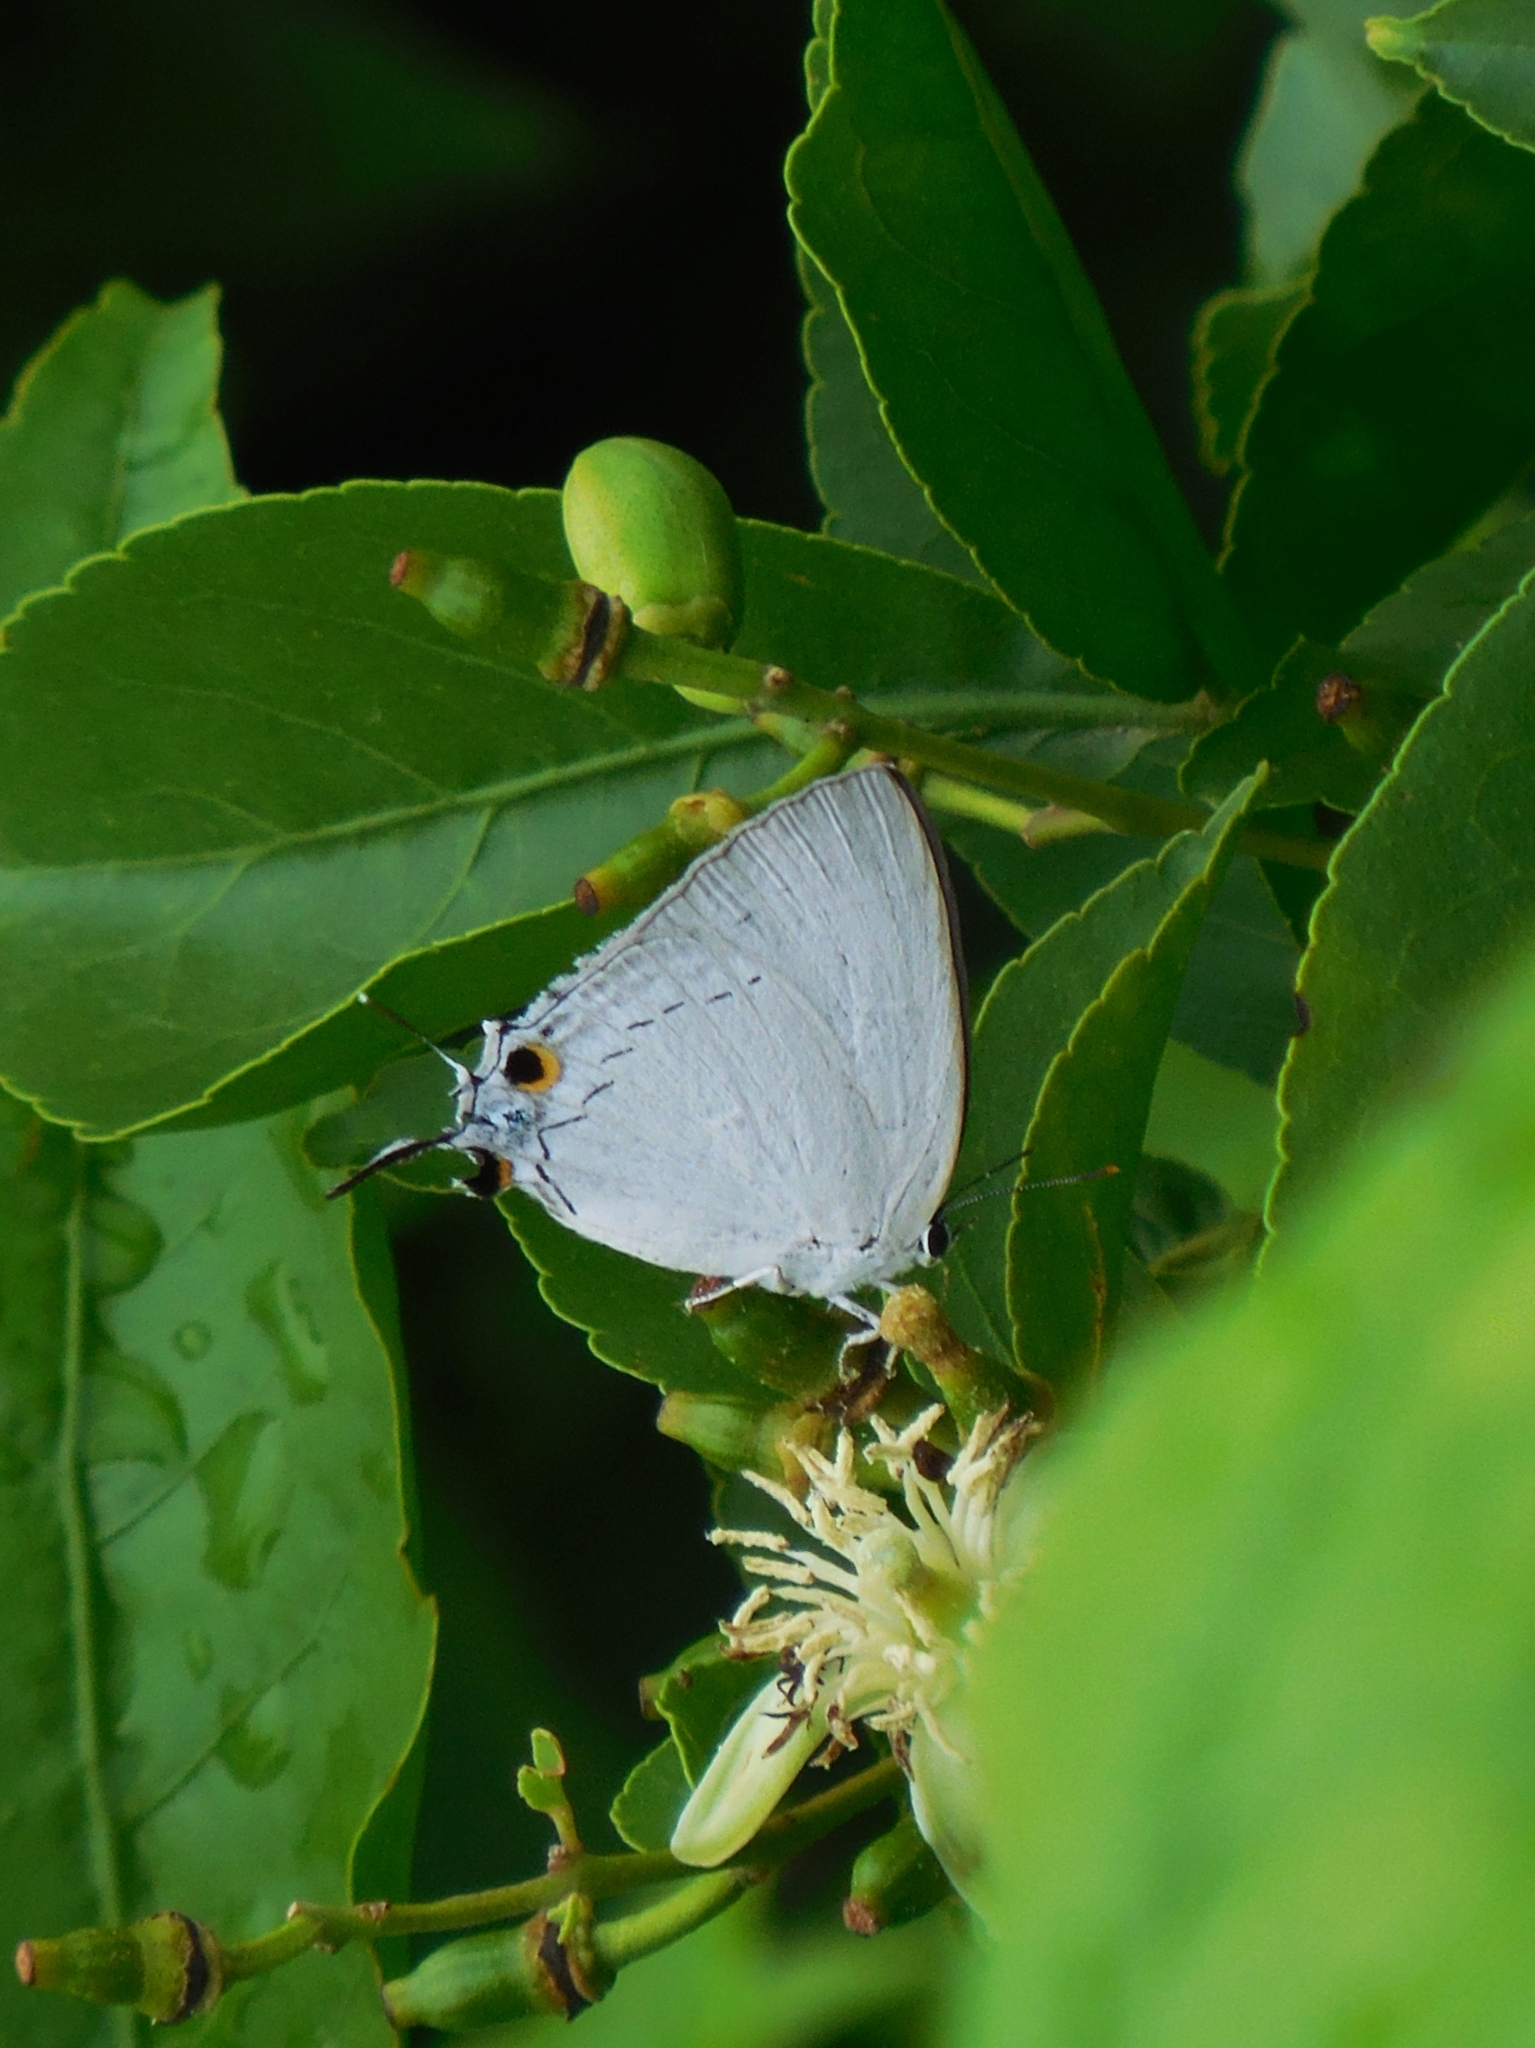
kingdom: Animalia
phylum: Arthropoda
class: Insecta
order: Lepidoptera
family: Lycaenidae
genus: Tajuria
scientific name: Tajuria cippus
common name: Peacock royal
